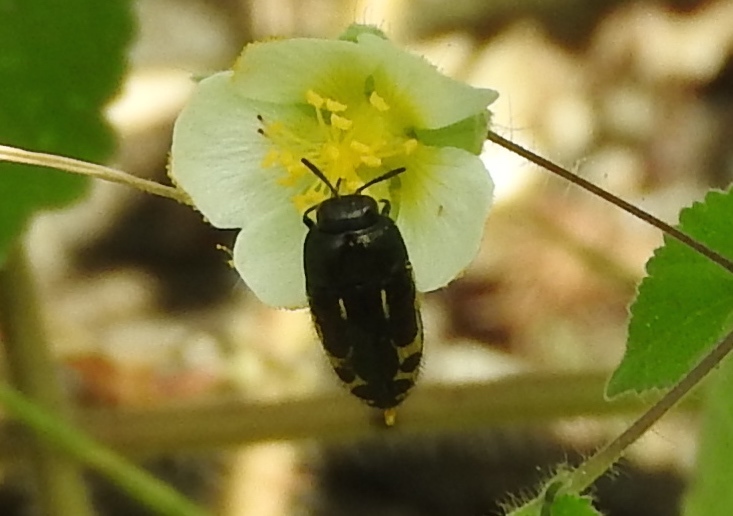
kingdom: Animalia
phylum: Arthropoda
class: Insecta
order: Coleoptera
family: Buprestidae
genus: Acmaeodera
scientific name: Acmaeodera scalaris
